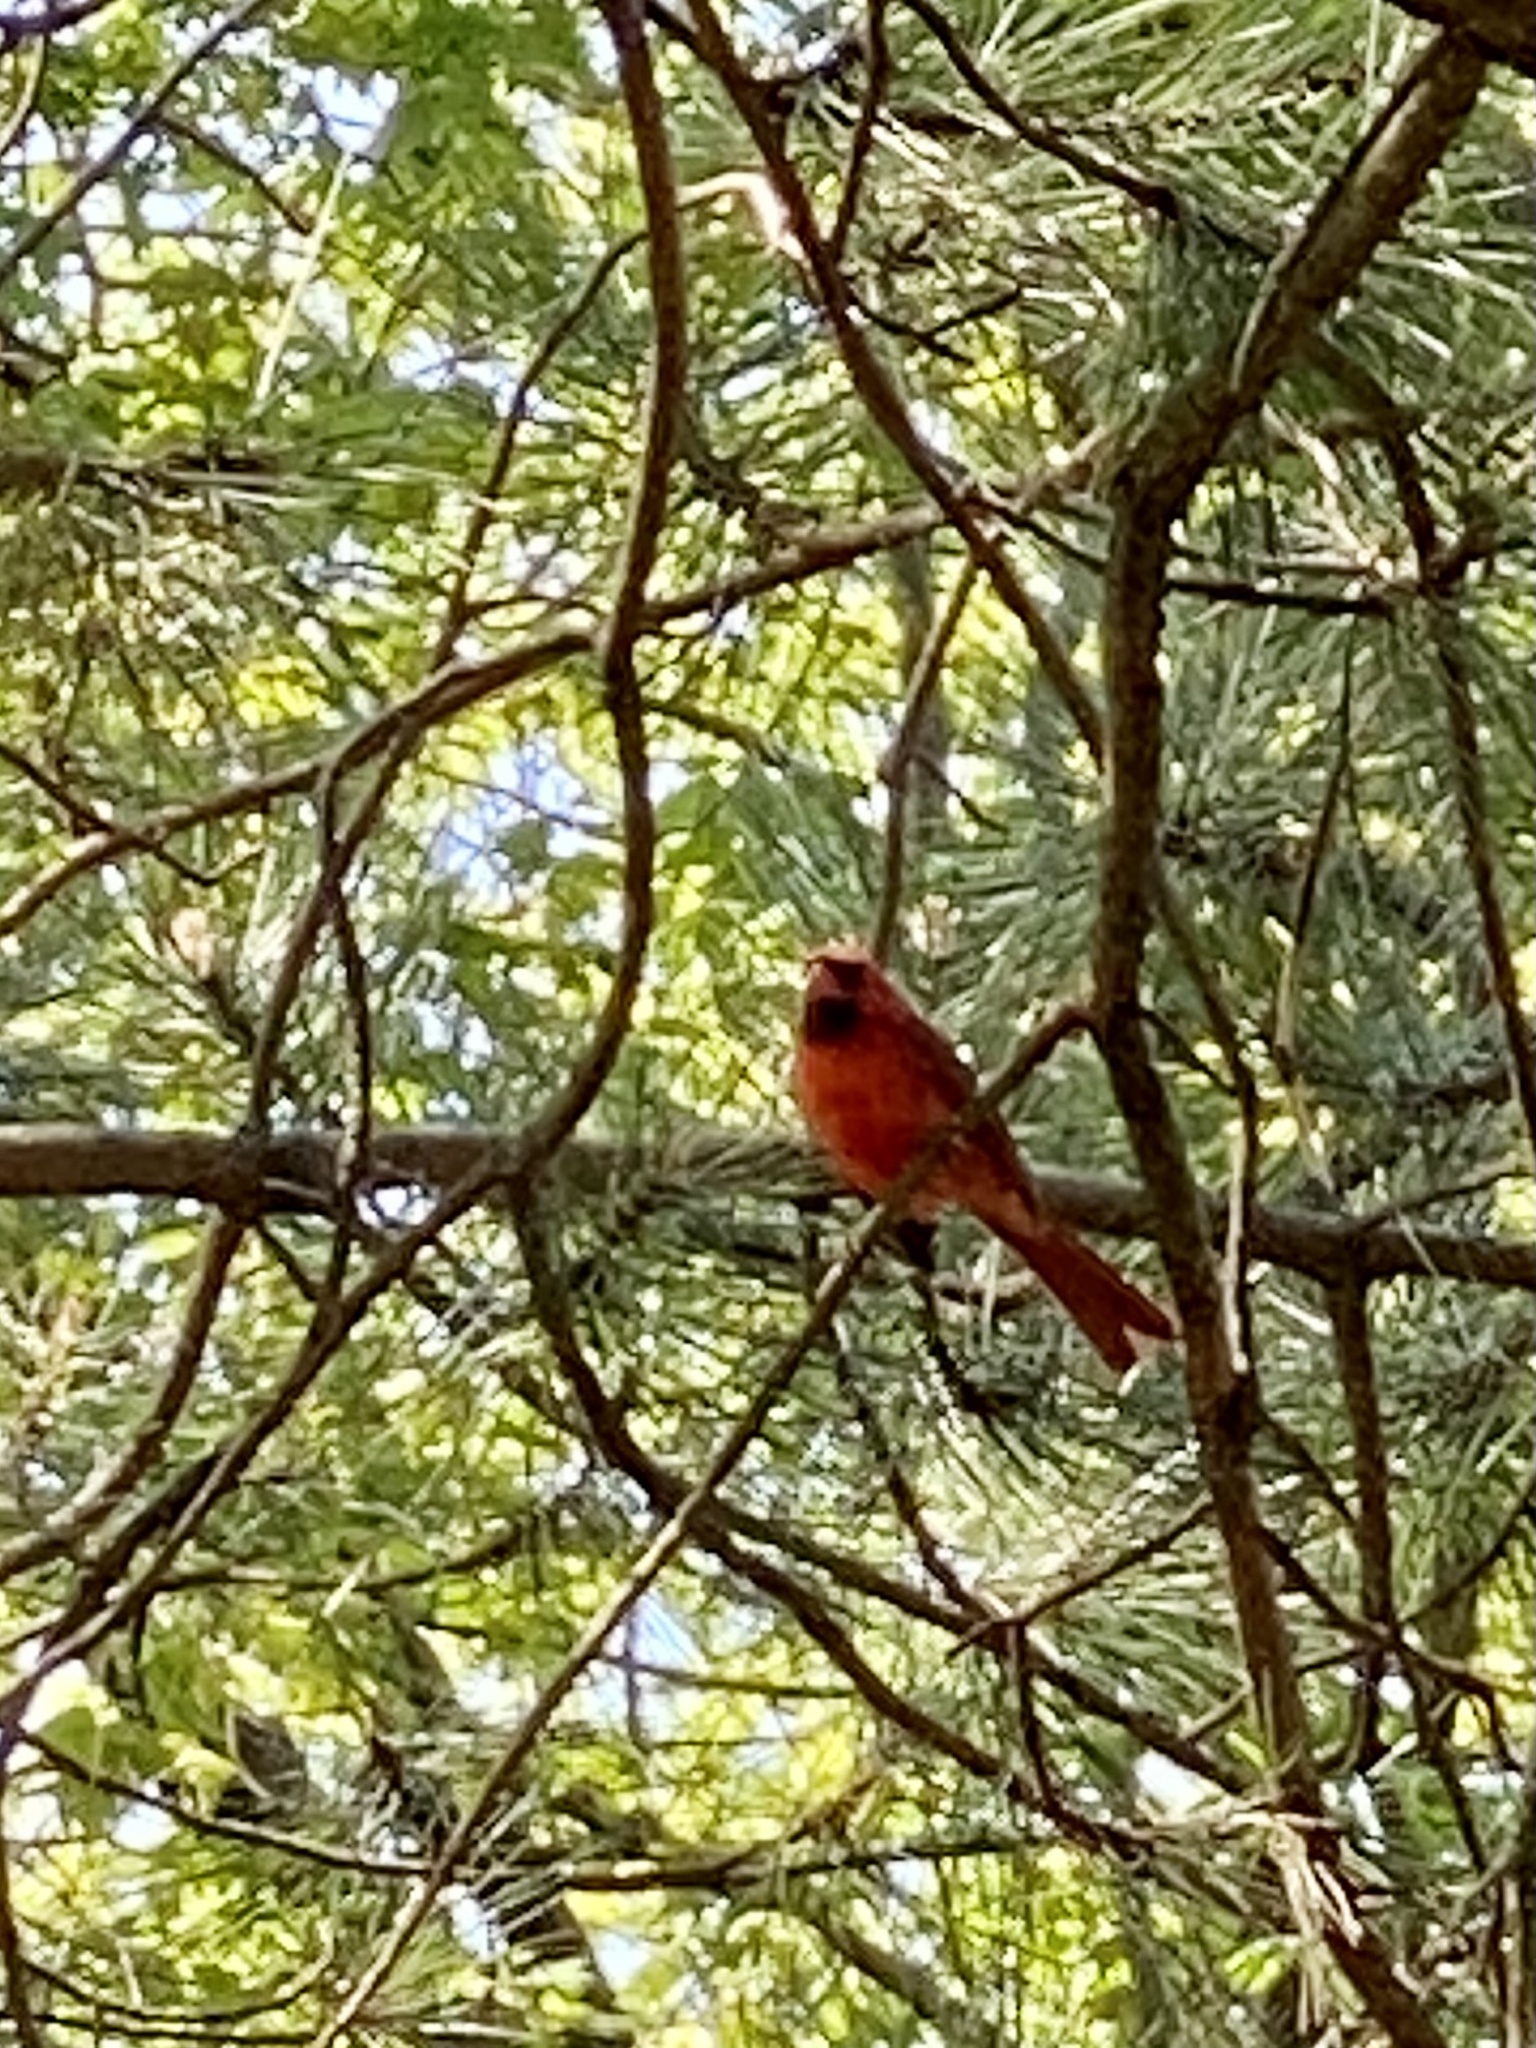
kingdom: Animalia
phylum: Chordata
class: Aves
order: Passeriformes
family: Cardinalidae
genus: Cardinalis
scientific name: Cardinalis cardinalis
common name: Northern cardinal
